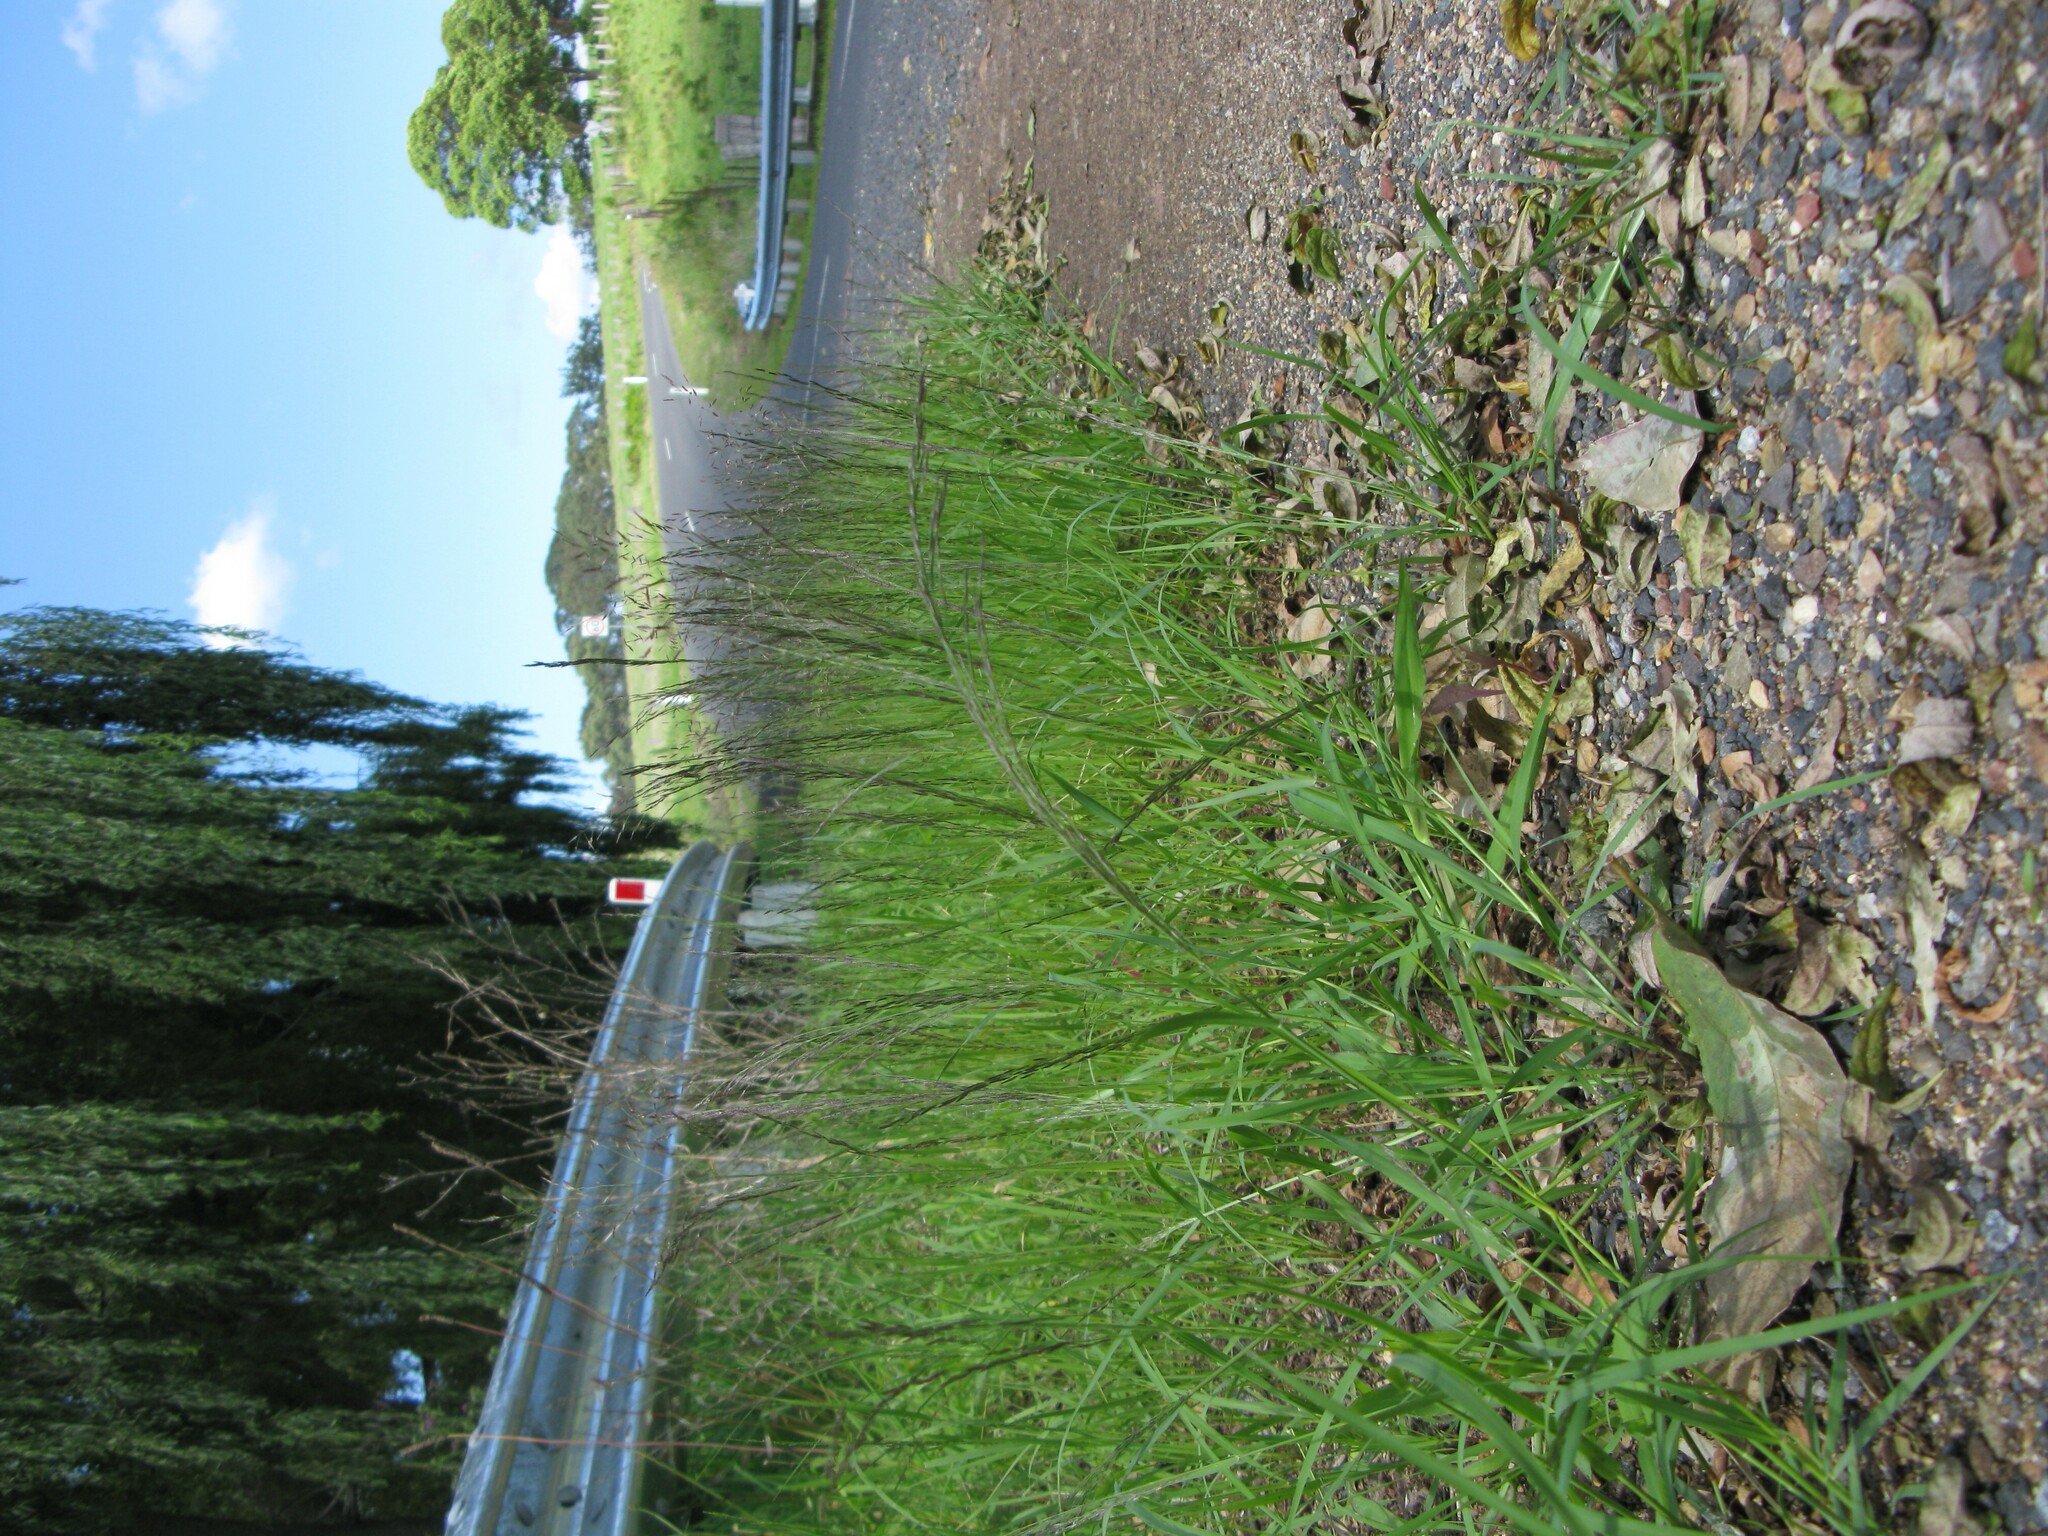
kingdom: Plantae
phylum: Tracheophyta
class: Liliopsida
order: Poales
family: Poaceae
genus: Eragrostis
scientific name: Eragrostis pilosa
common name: Indian lovegrass
